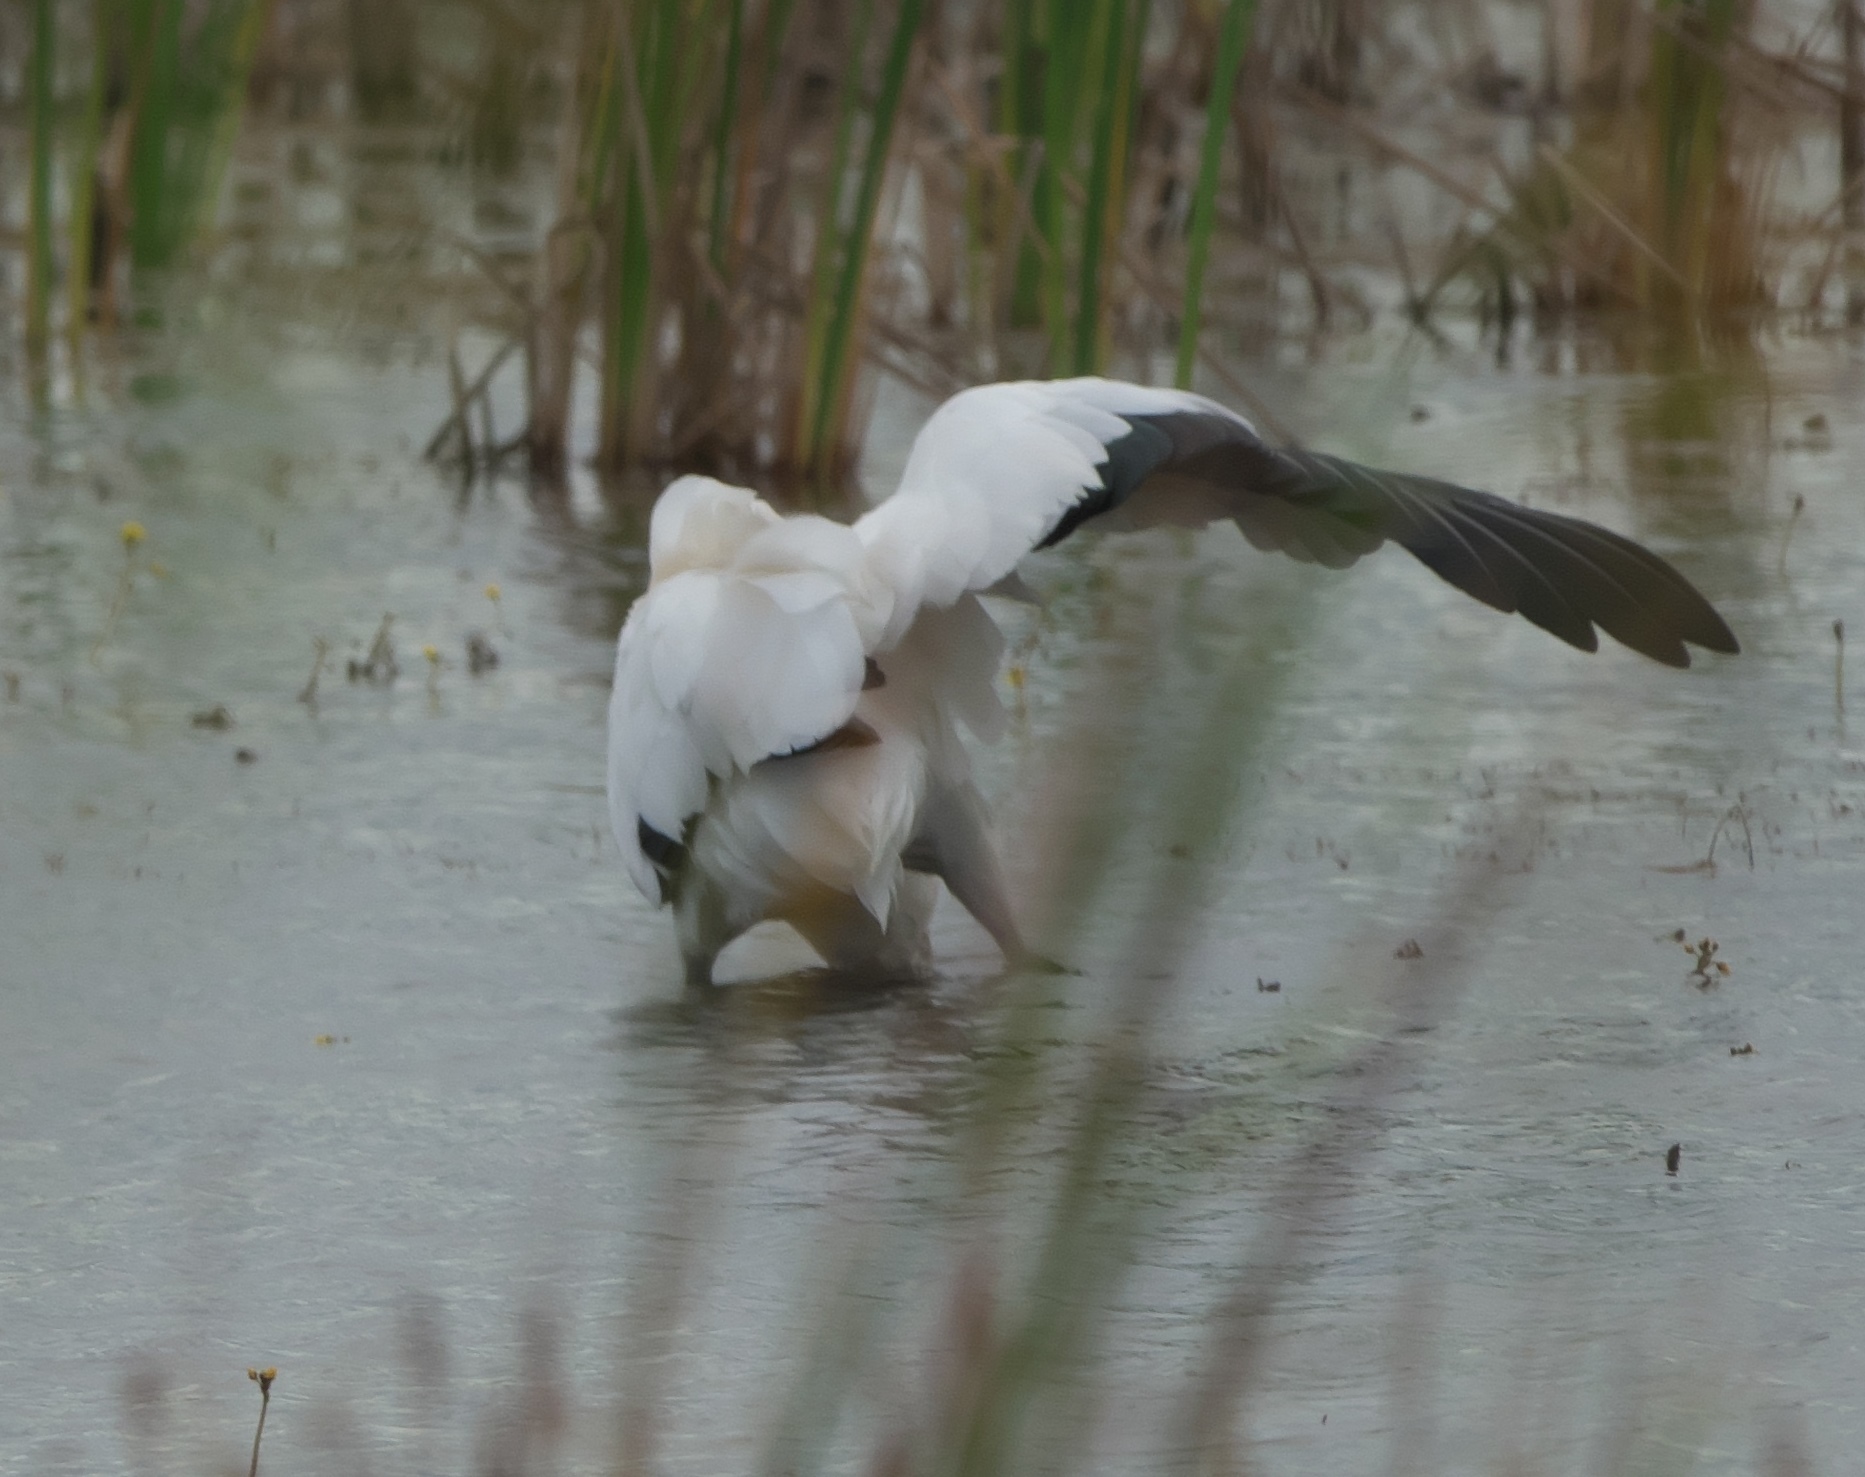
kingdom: Animalia
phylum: Chordata
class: Aves
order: Ciconiiformes
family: Ciconiidae
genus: Mycteria
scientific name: Mycteria americana
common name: Wood stork
